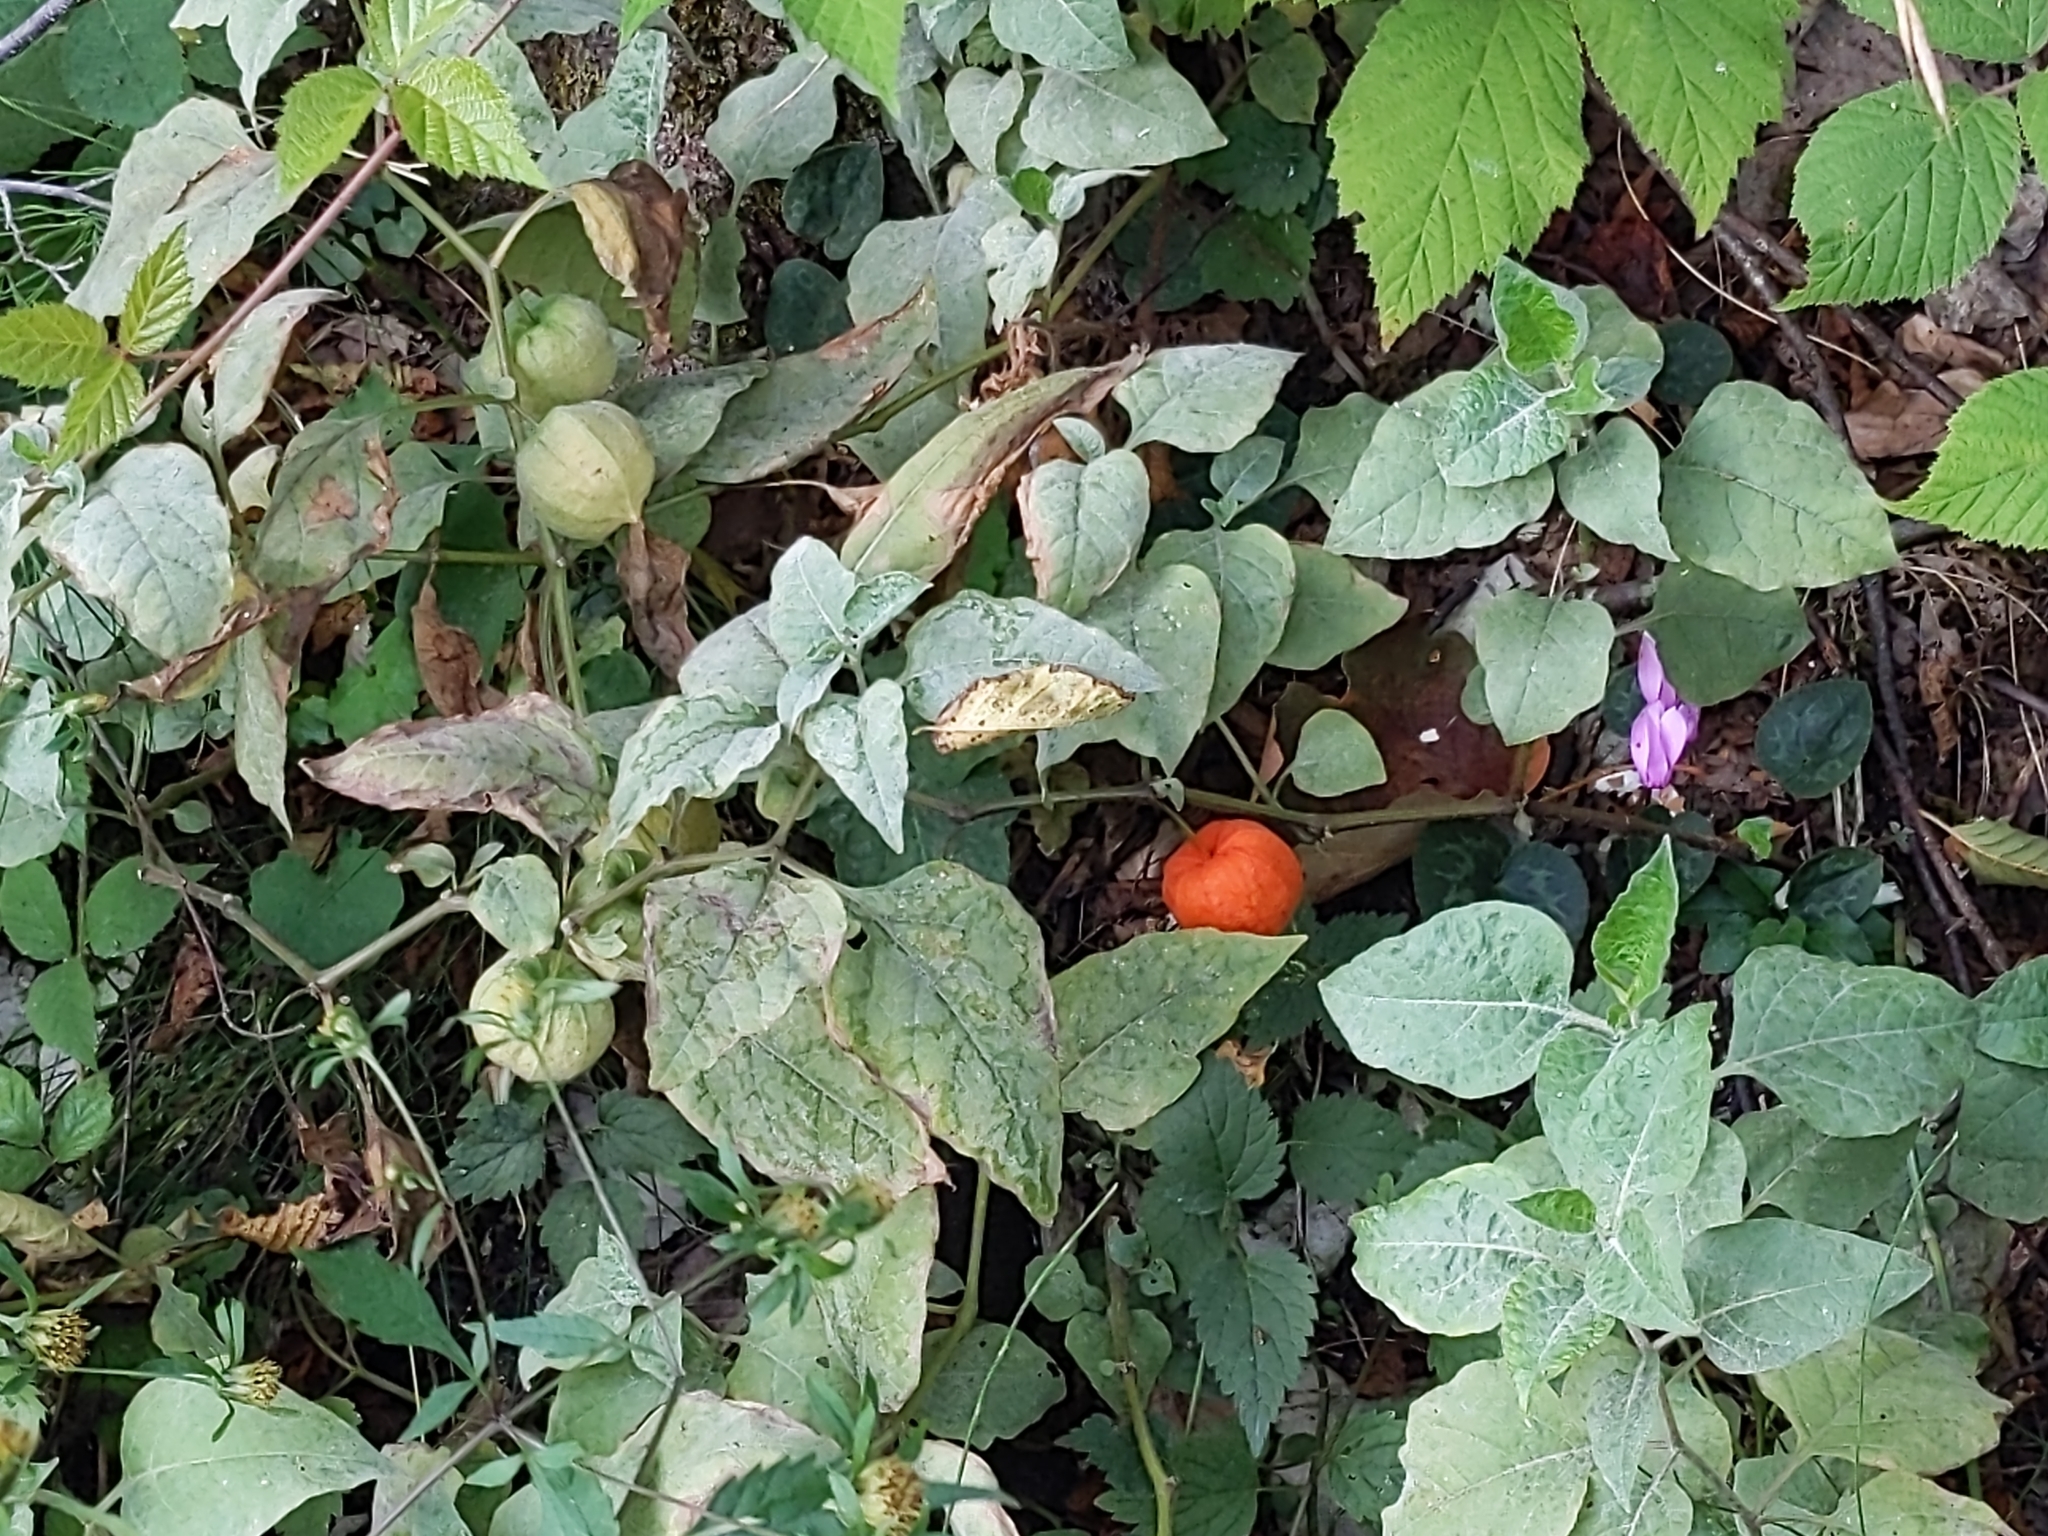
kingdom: Plantae
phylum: Tracheophyta
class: Magnoliopsida
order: Solanales
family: Solanaceae
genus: Alkekengi
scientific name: Alkekengi officinarum
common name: Japanese-lantern
